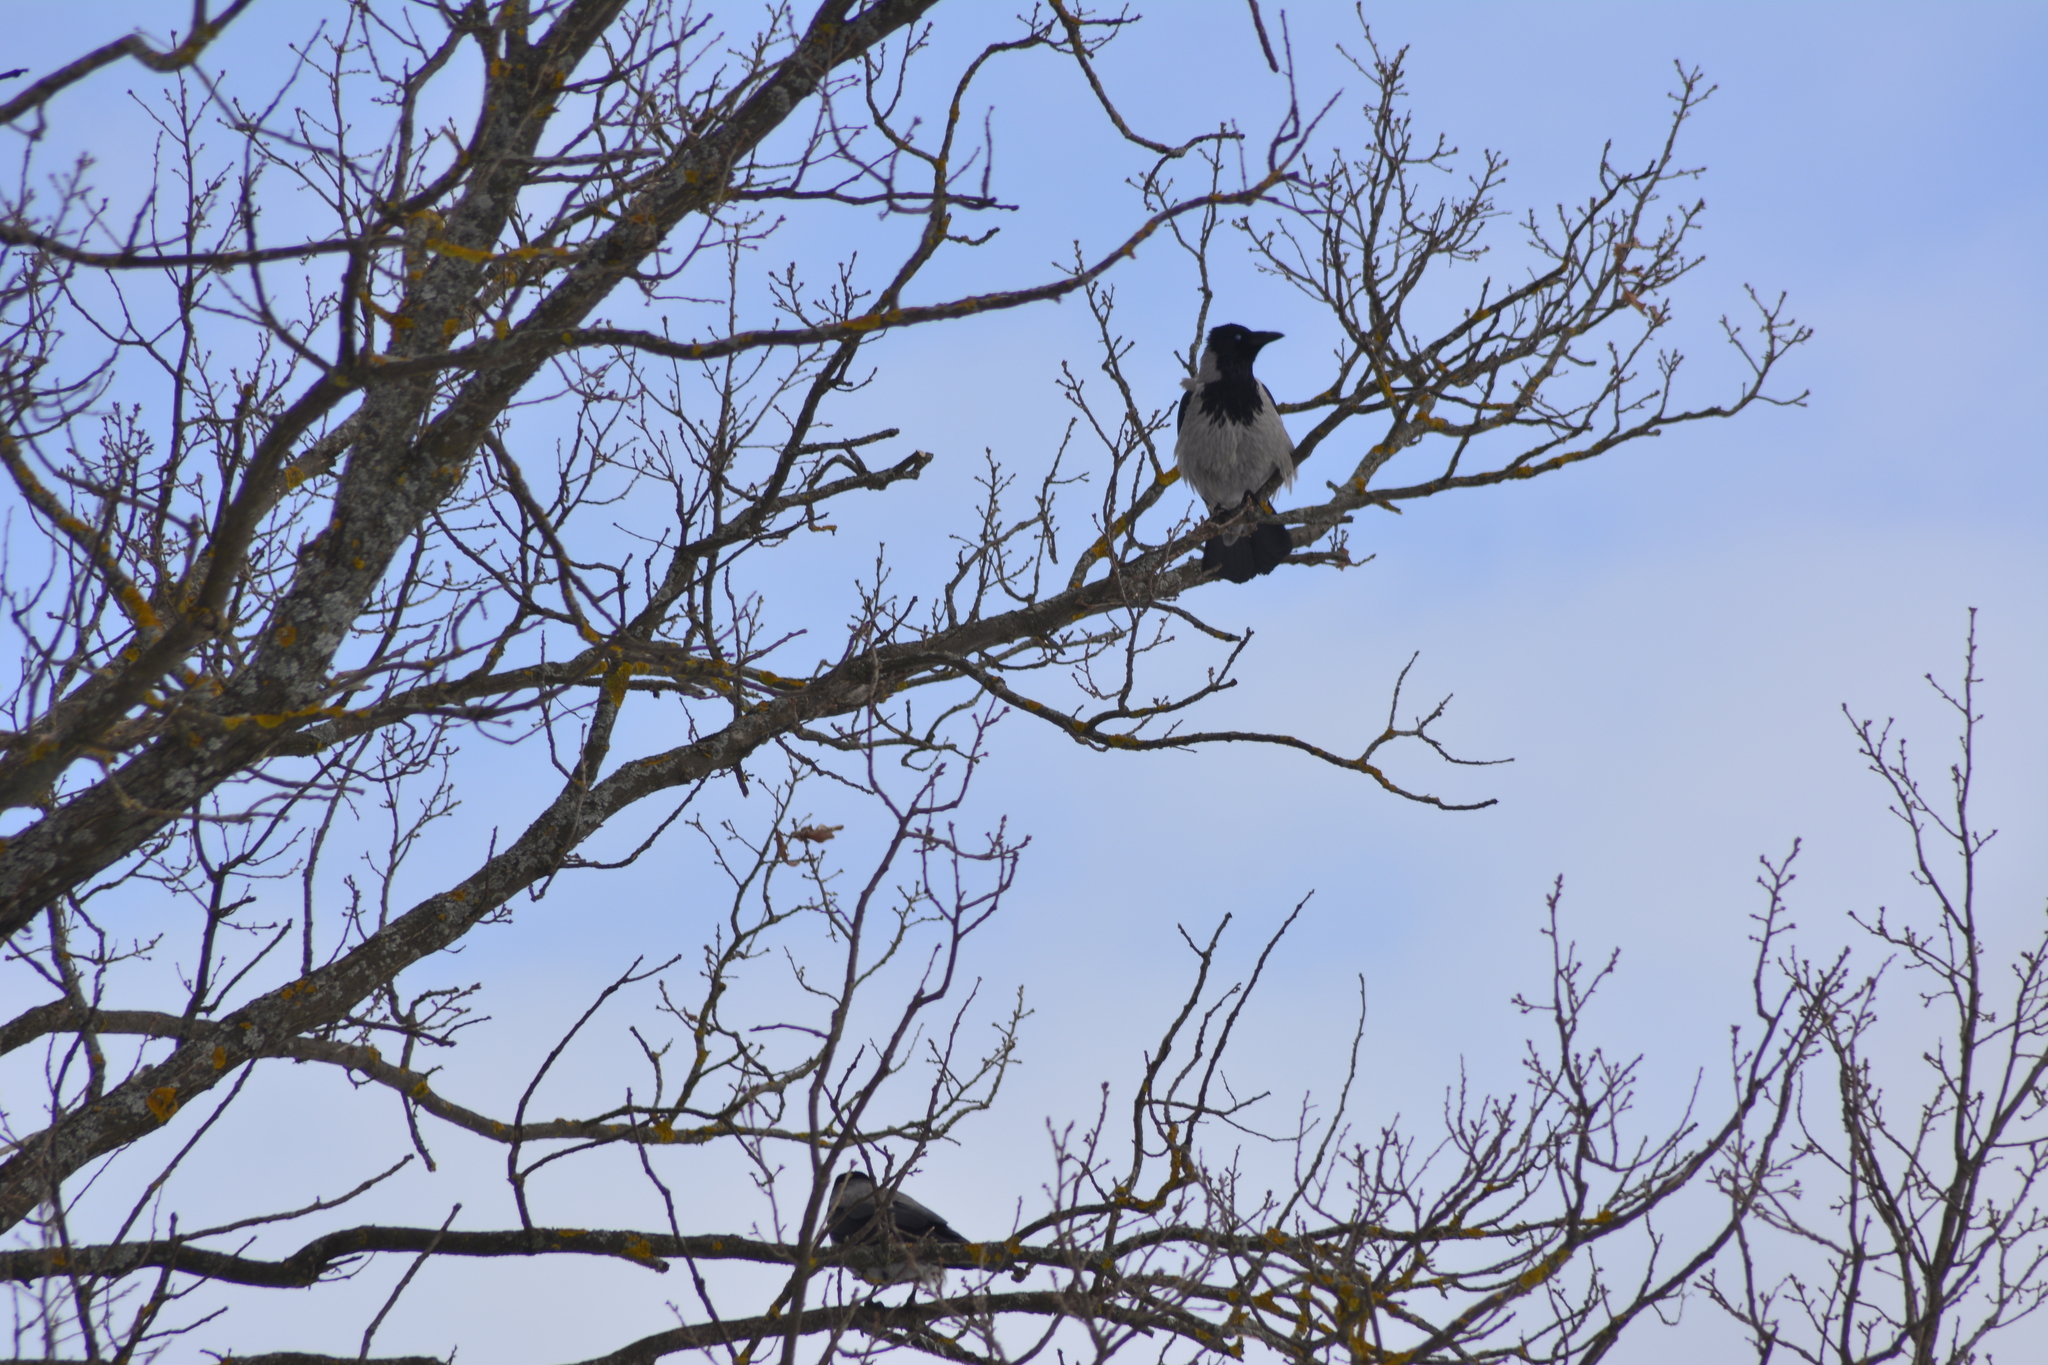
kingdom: Animalia
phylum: Chordata
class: Aves
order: Passeriformes
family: Corvidae
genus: Corvus
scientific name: Corvus cornix
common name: Hooded crow
